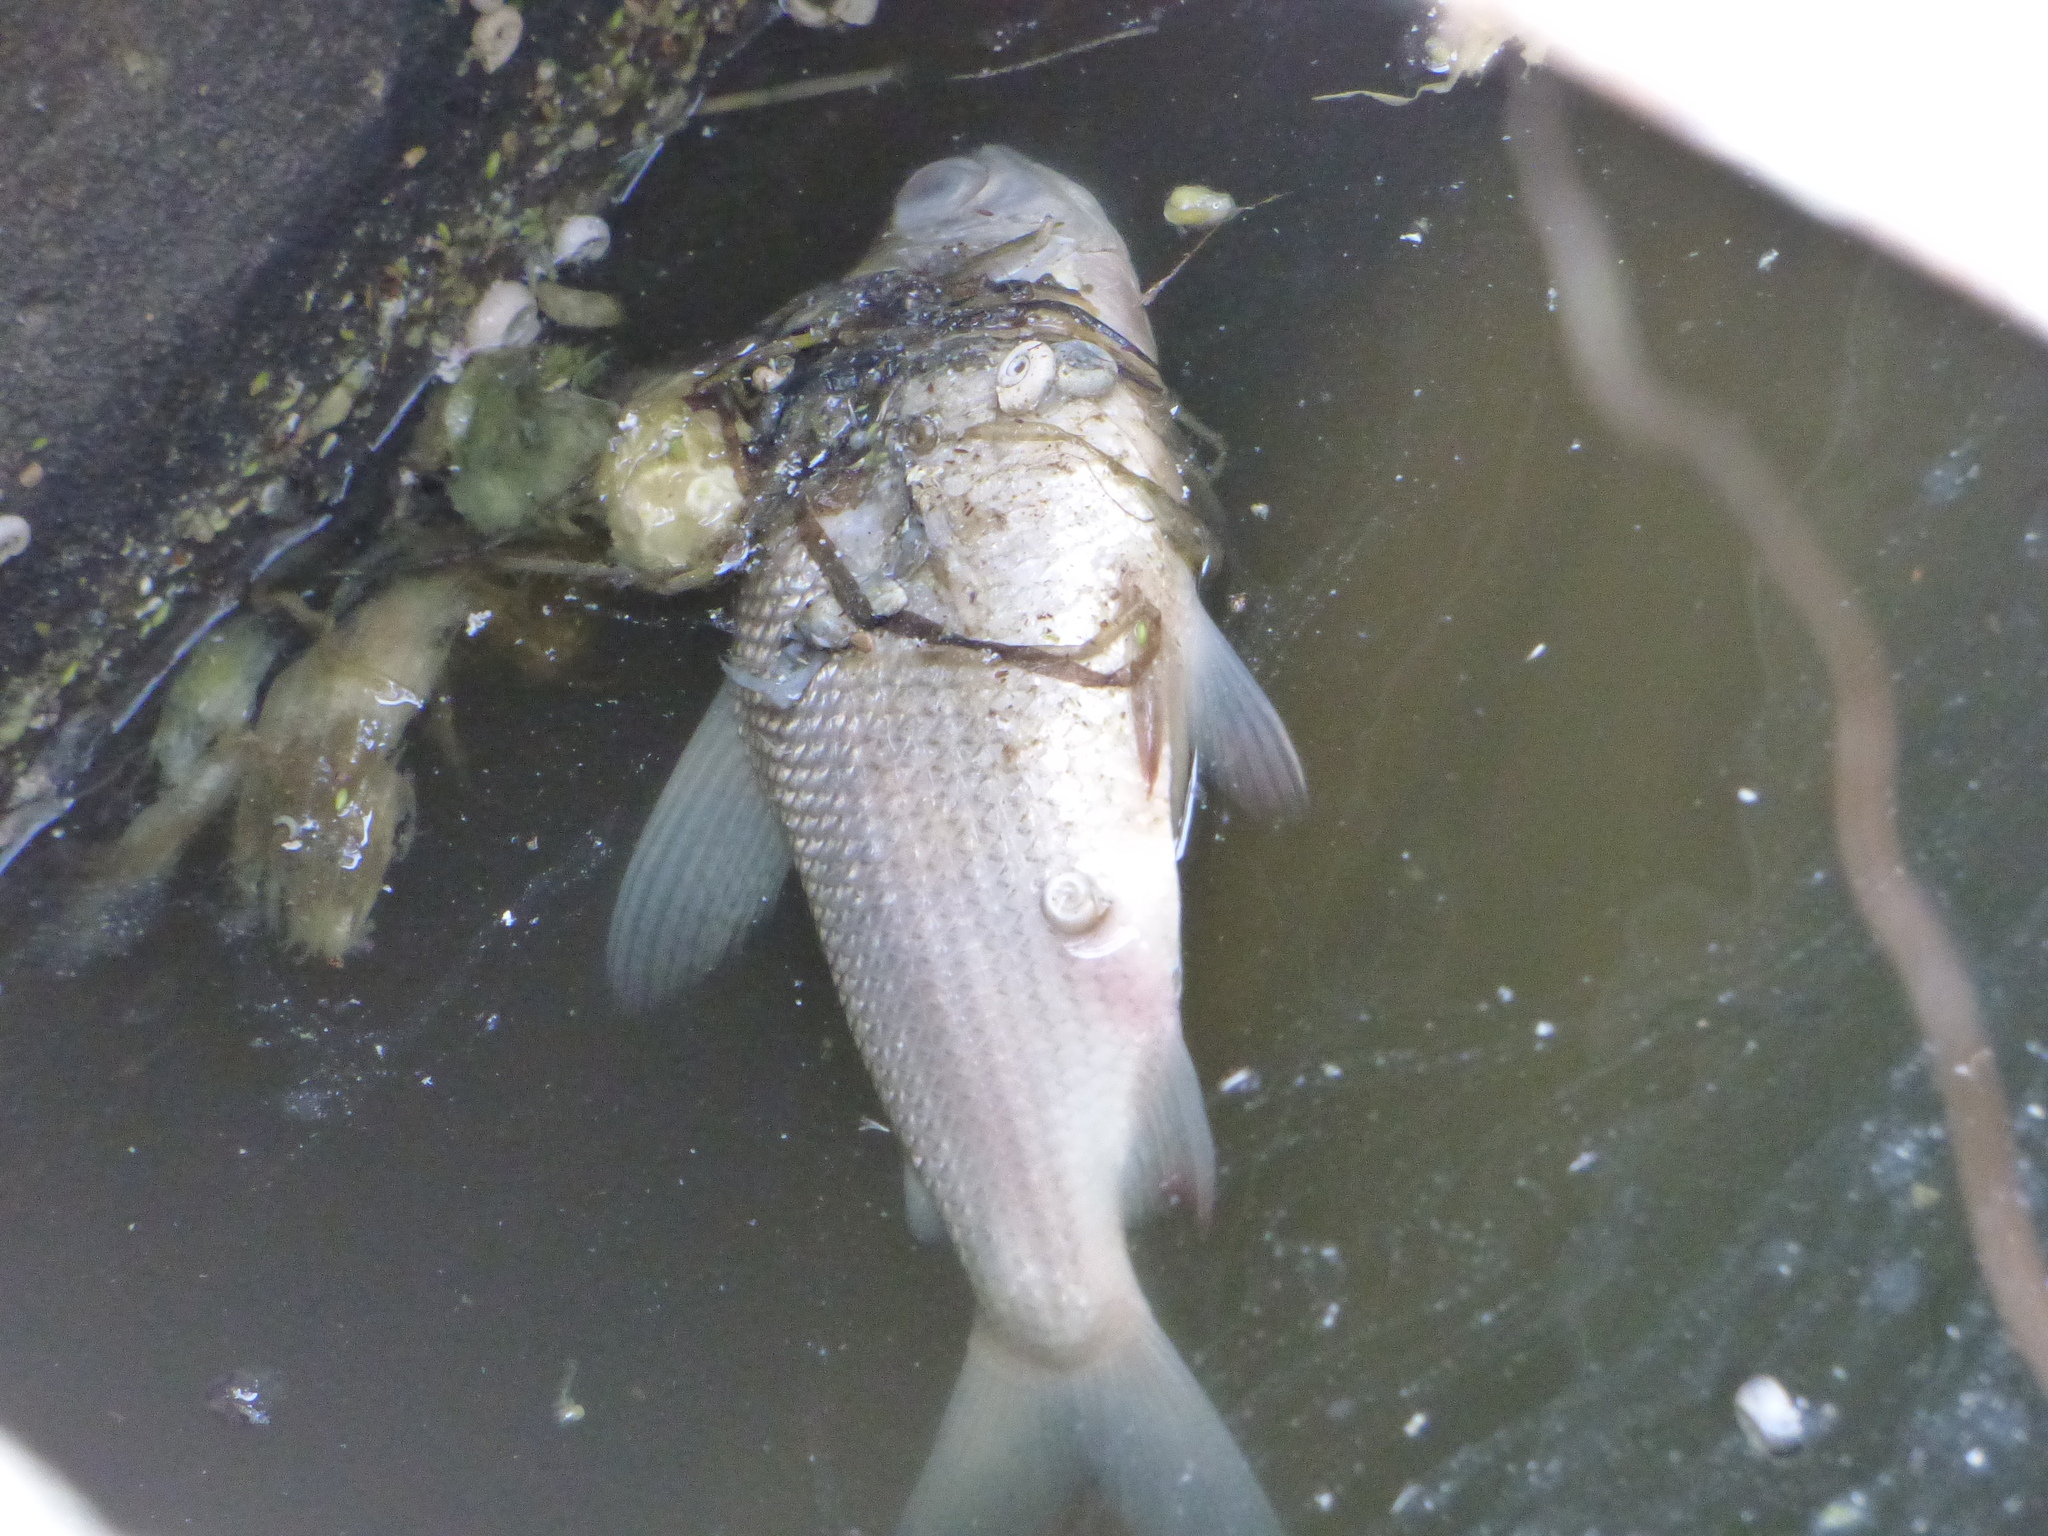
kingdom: Animalia
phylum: Chordata
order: Characiformes
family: Prochilodontidae
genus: Prochilodus
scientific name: Prochilodus lineatus
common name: Curimbata
